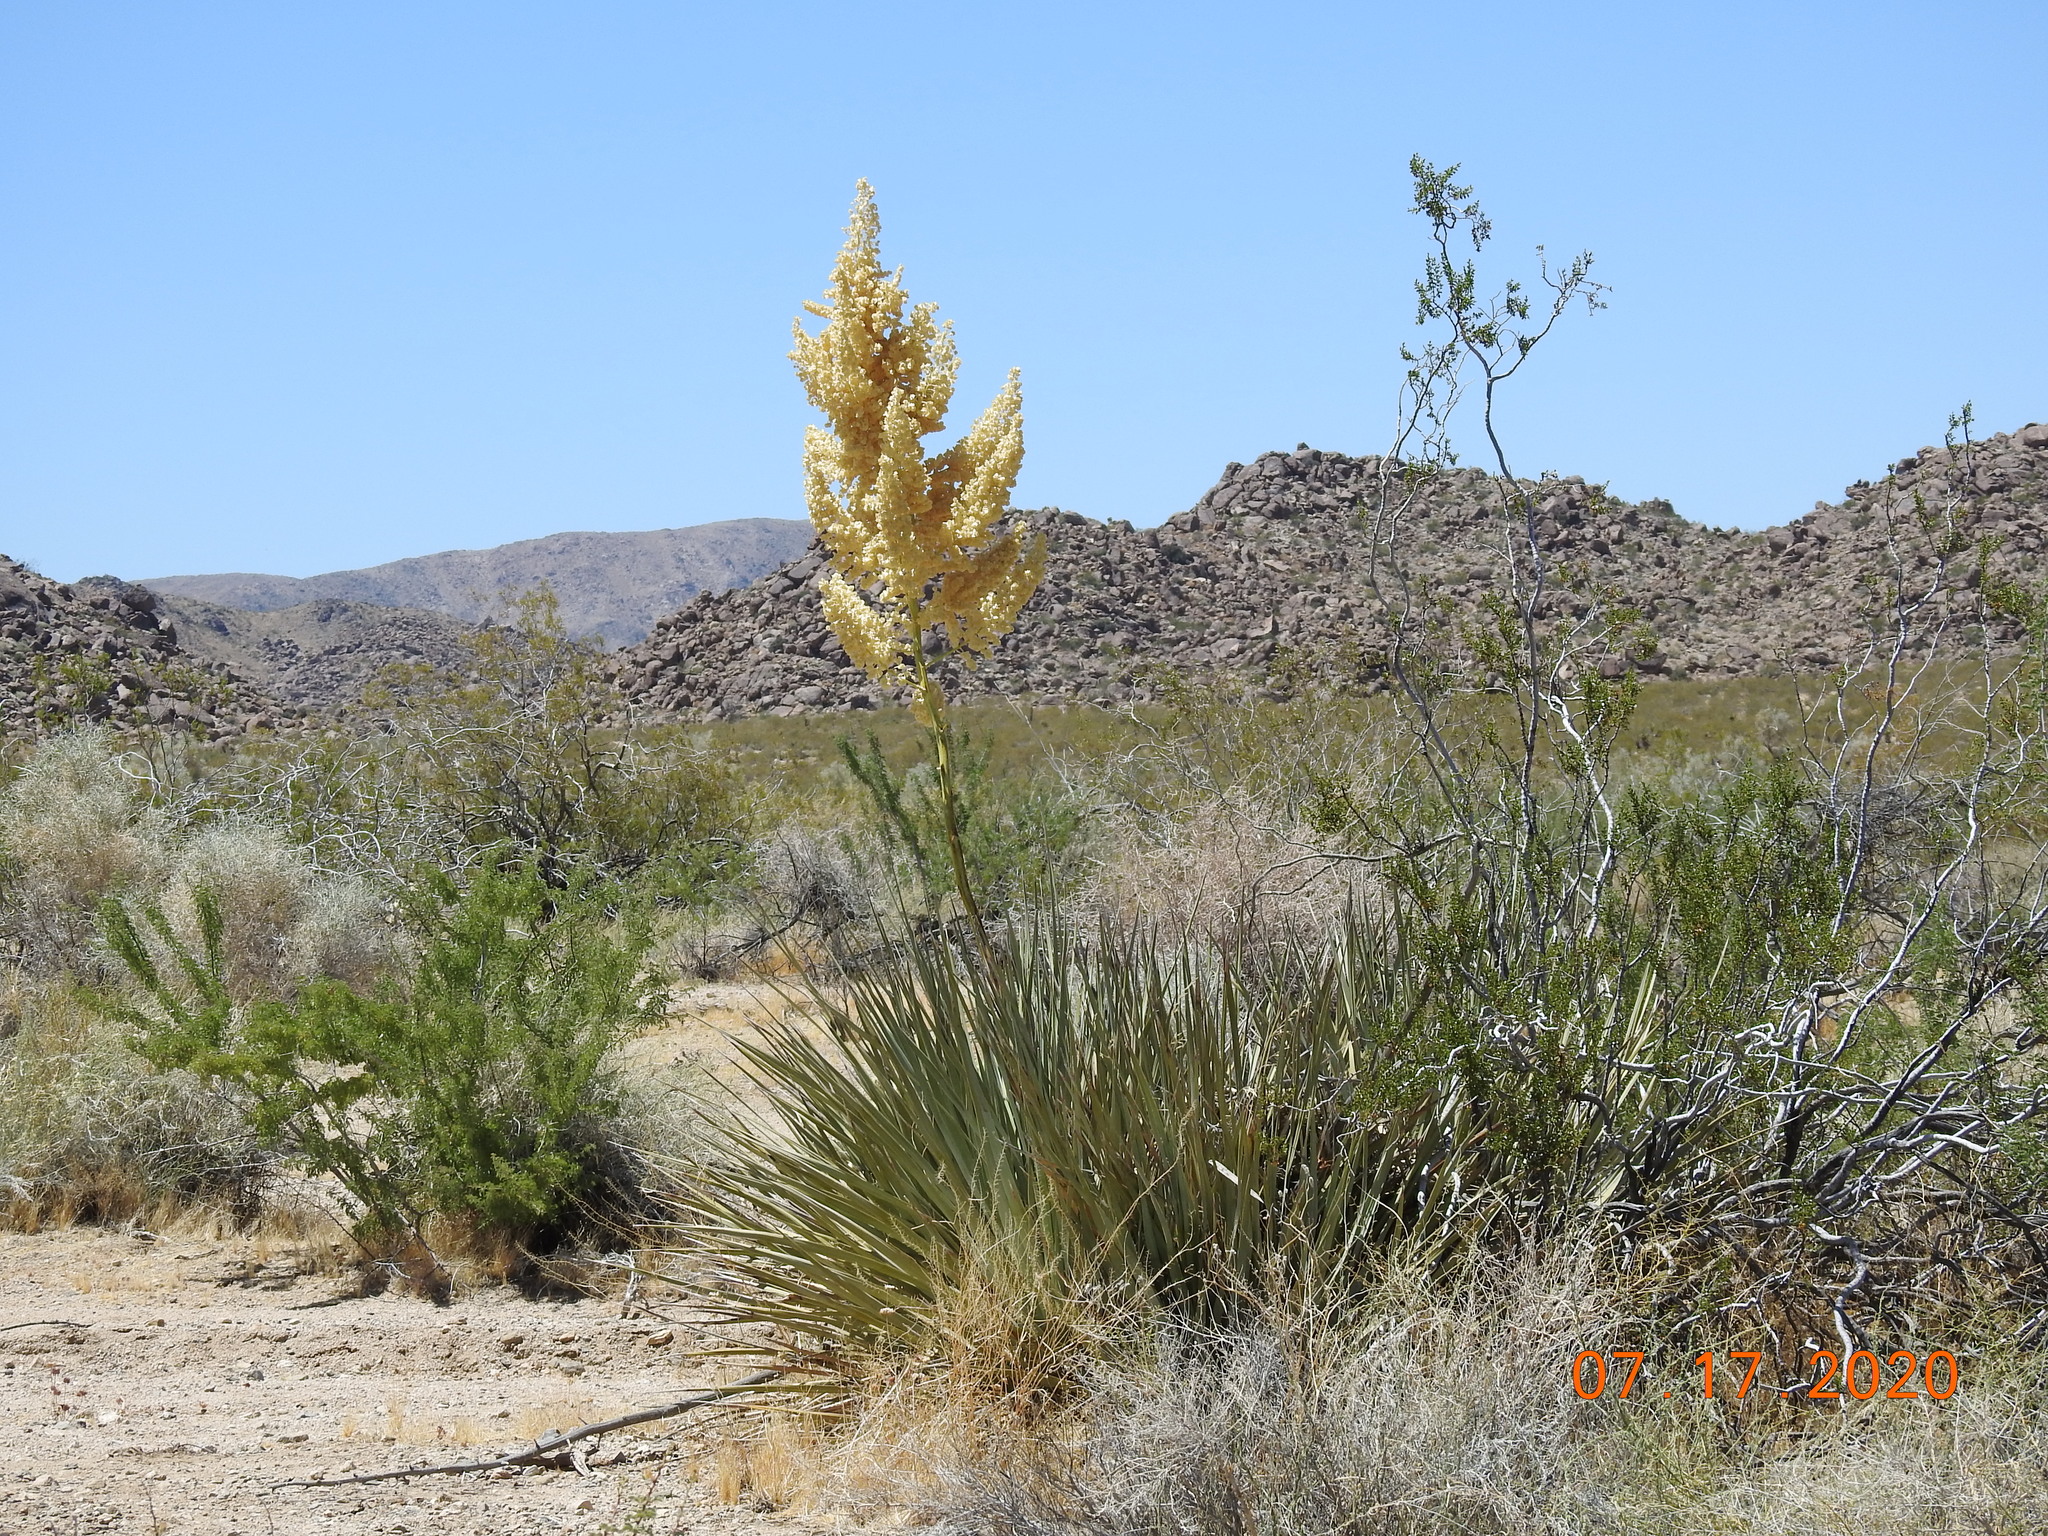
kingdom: Plantae
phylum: Tracheophyta
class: Liliopsida
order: Asparagales
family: Asparagaceae
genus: Nolina
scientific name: Nolina bigelovii
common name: Bigelow bear-grass
